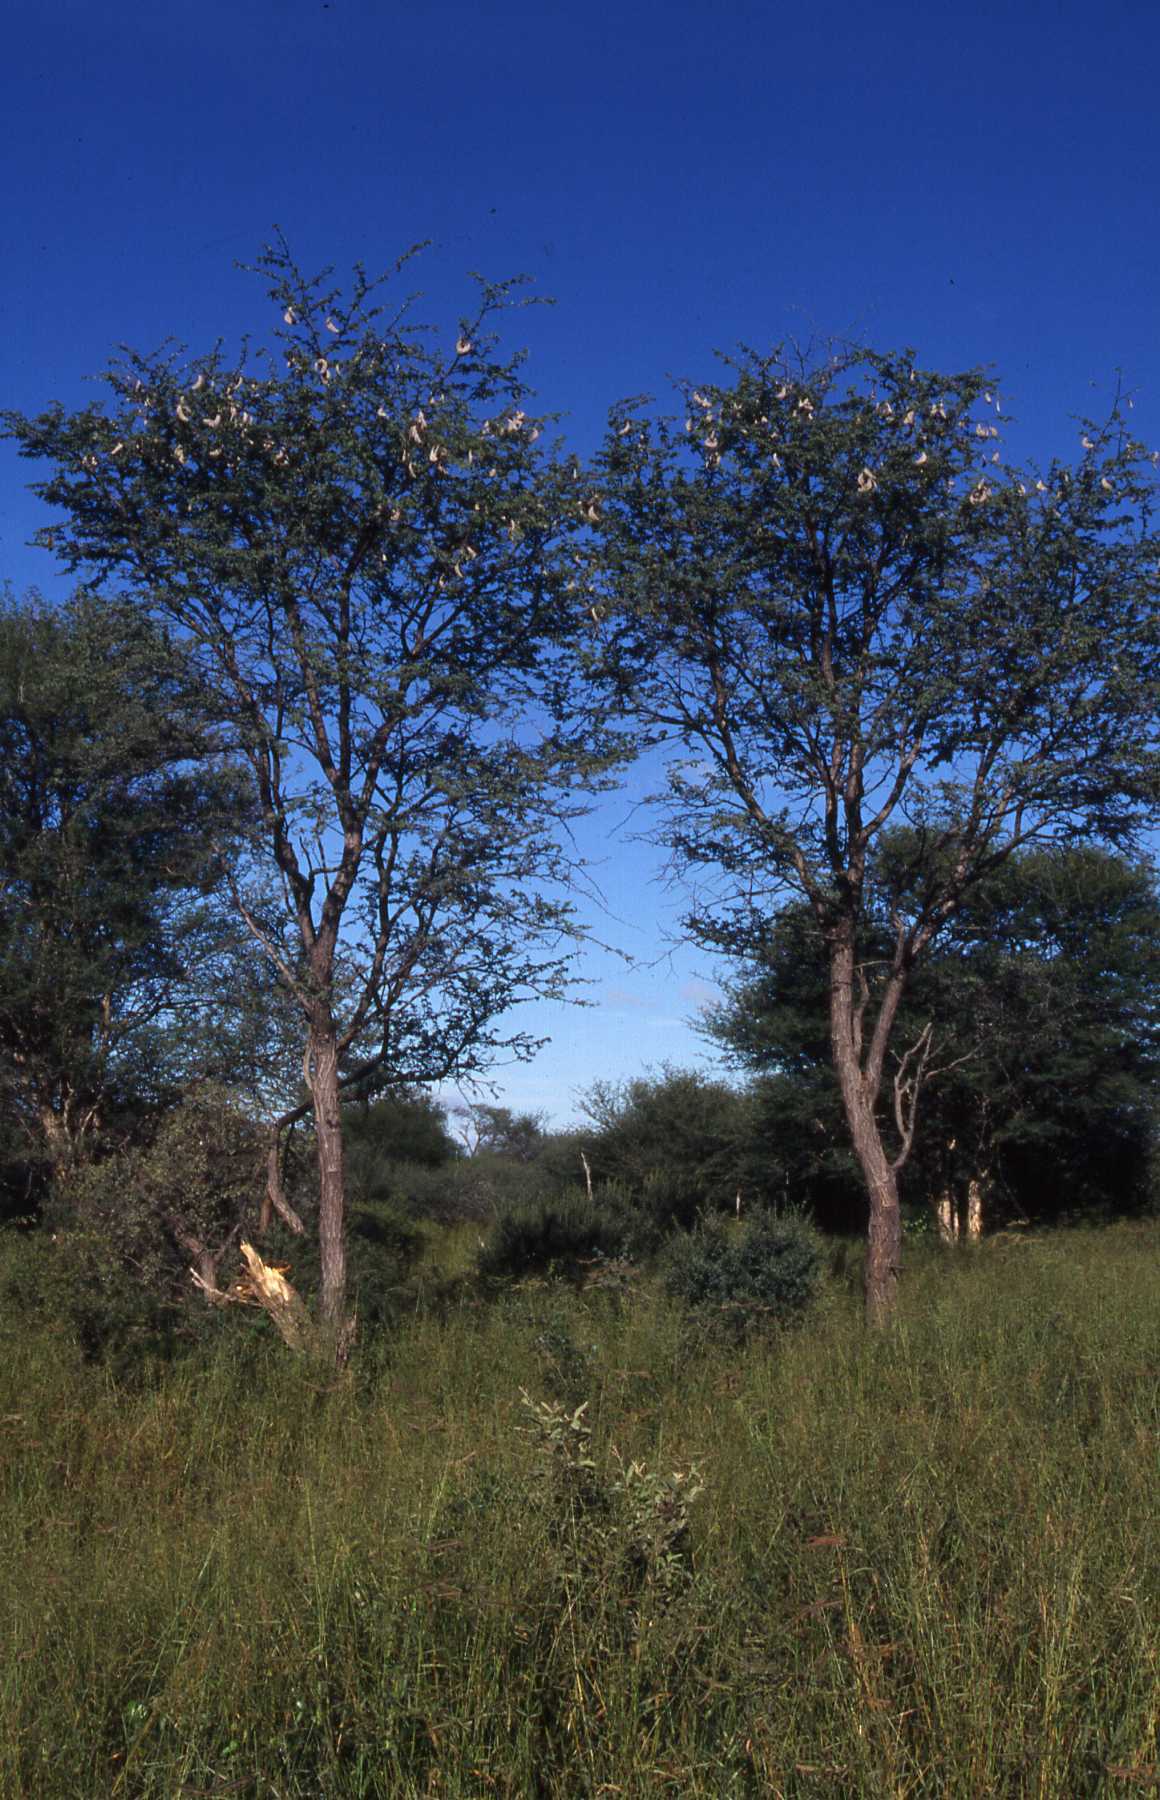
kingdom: Plantae
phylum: Tracheophyta
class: Magnoliopsida
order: Fabales
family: Fabaceae
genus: Vachellia
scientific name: Vachellia erioloba
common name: Camel thorn
